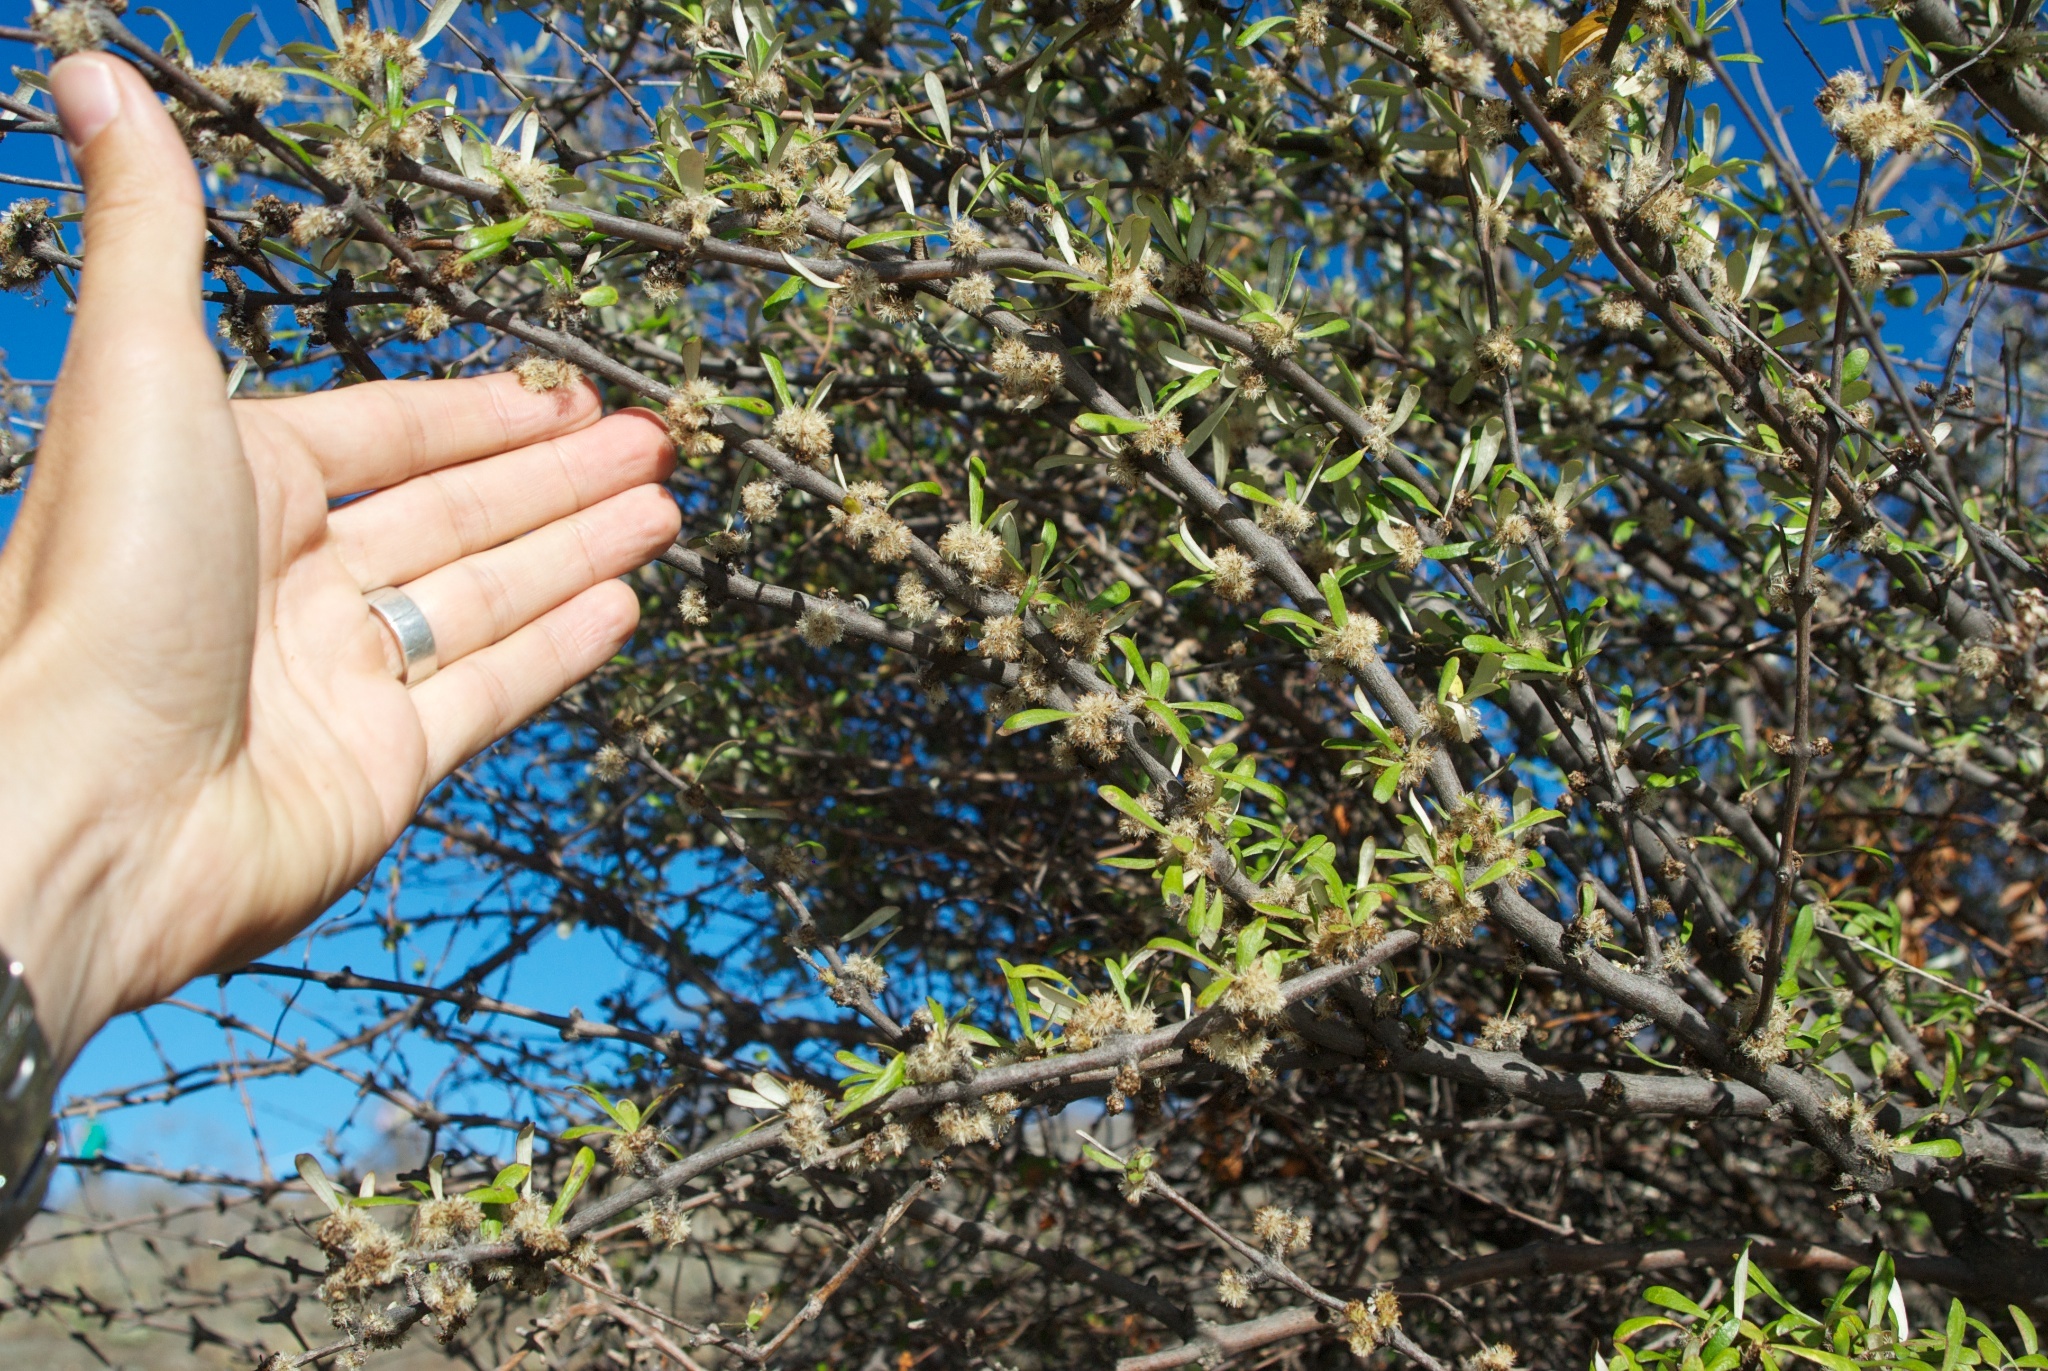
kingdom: Plantae
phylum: Tracheophyta
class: Magnoliopsida
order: Asterales
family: Asteraceae
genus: Olearia
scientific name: Olearia odorata
